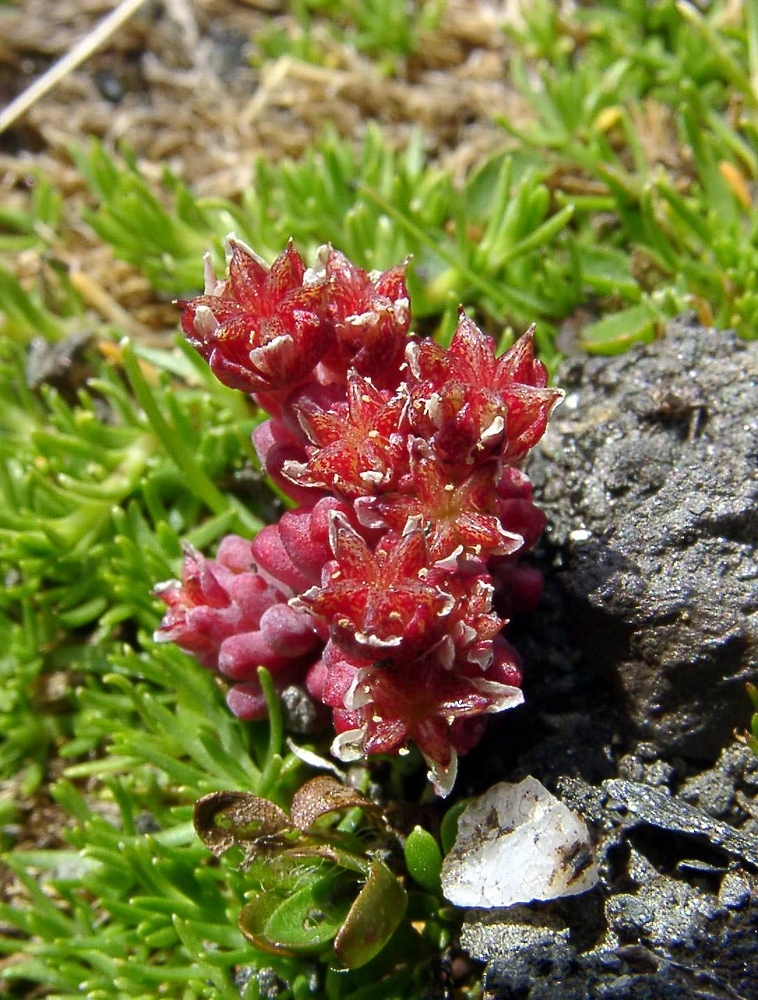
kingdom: Plantae
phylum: Tracheophyta
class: Magnoliopsida
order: Saxifragales
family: Crassulaceae
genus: Sedum
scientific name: Sedum atratum
